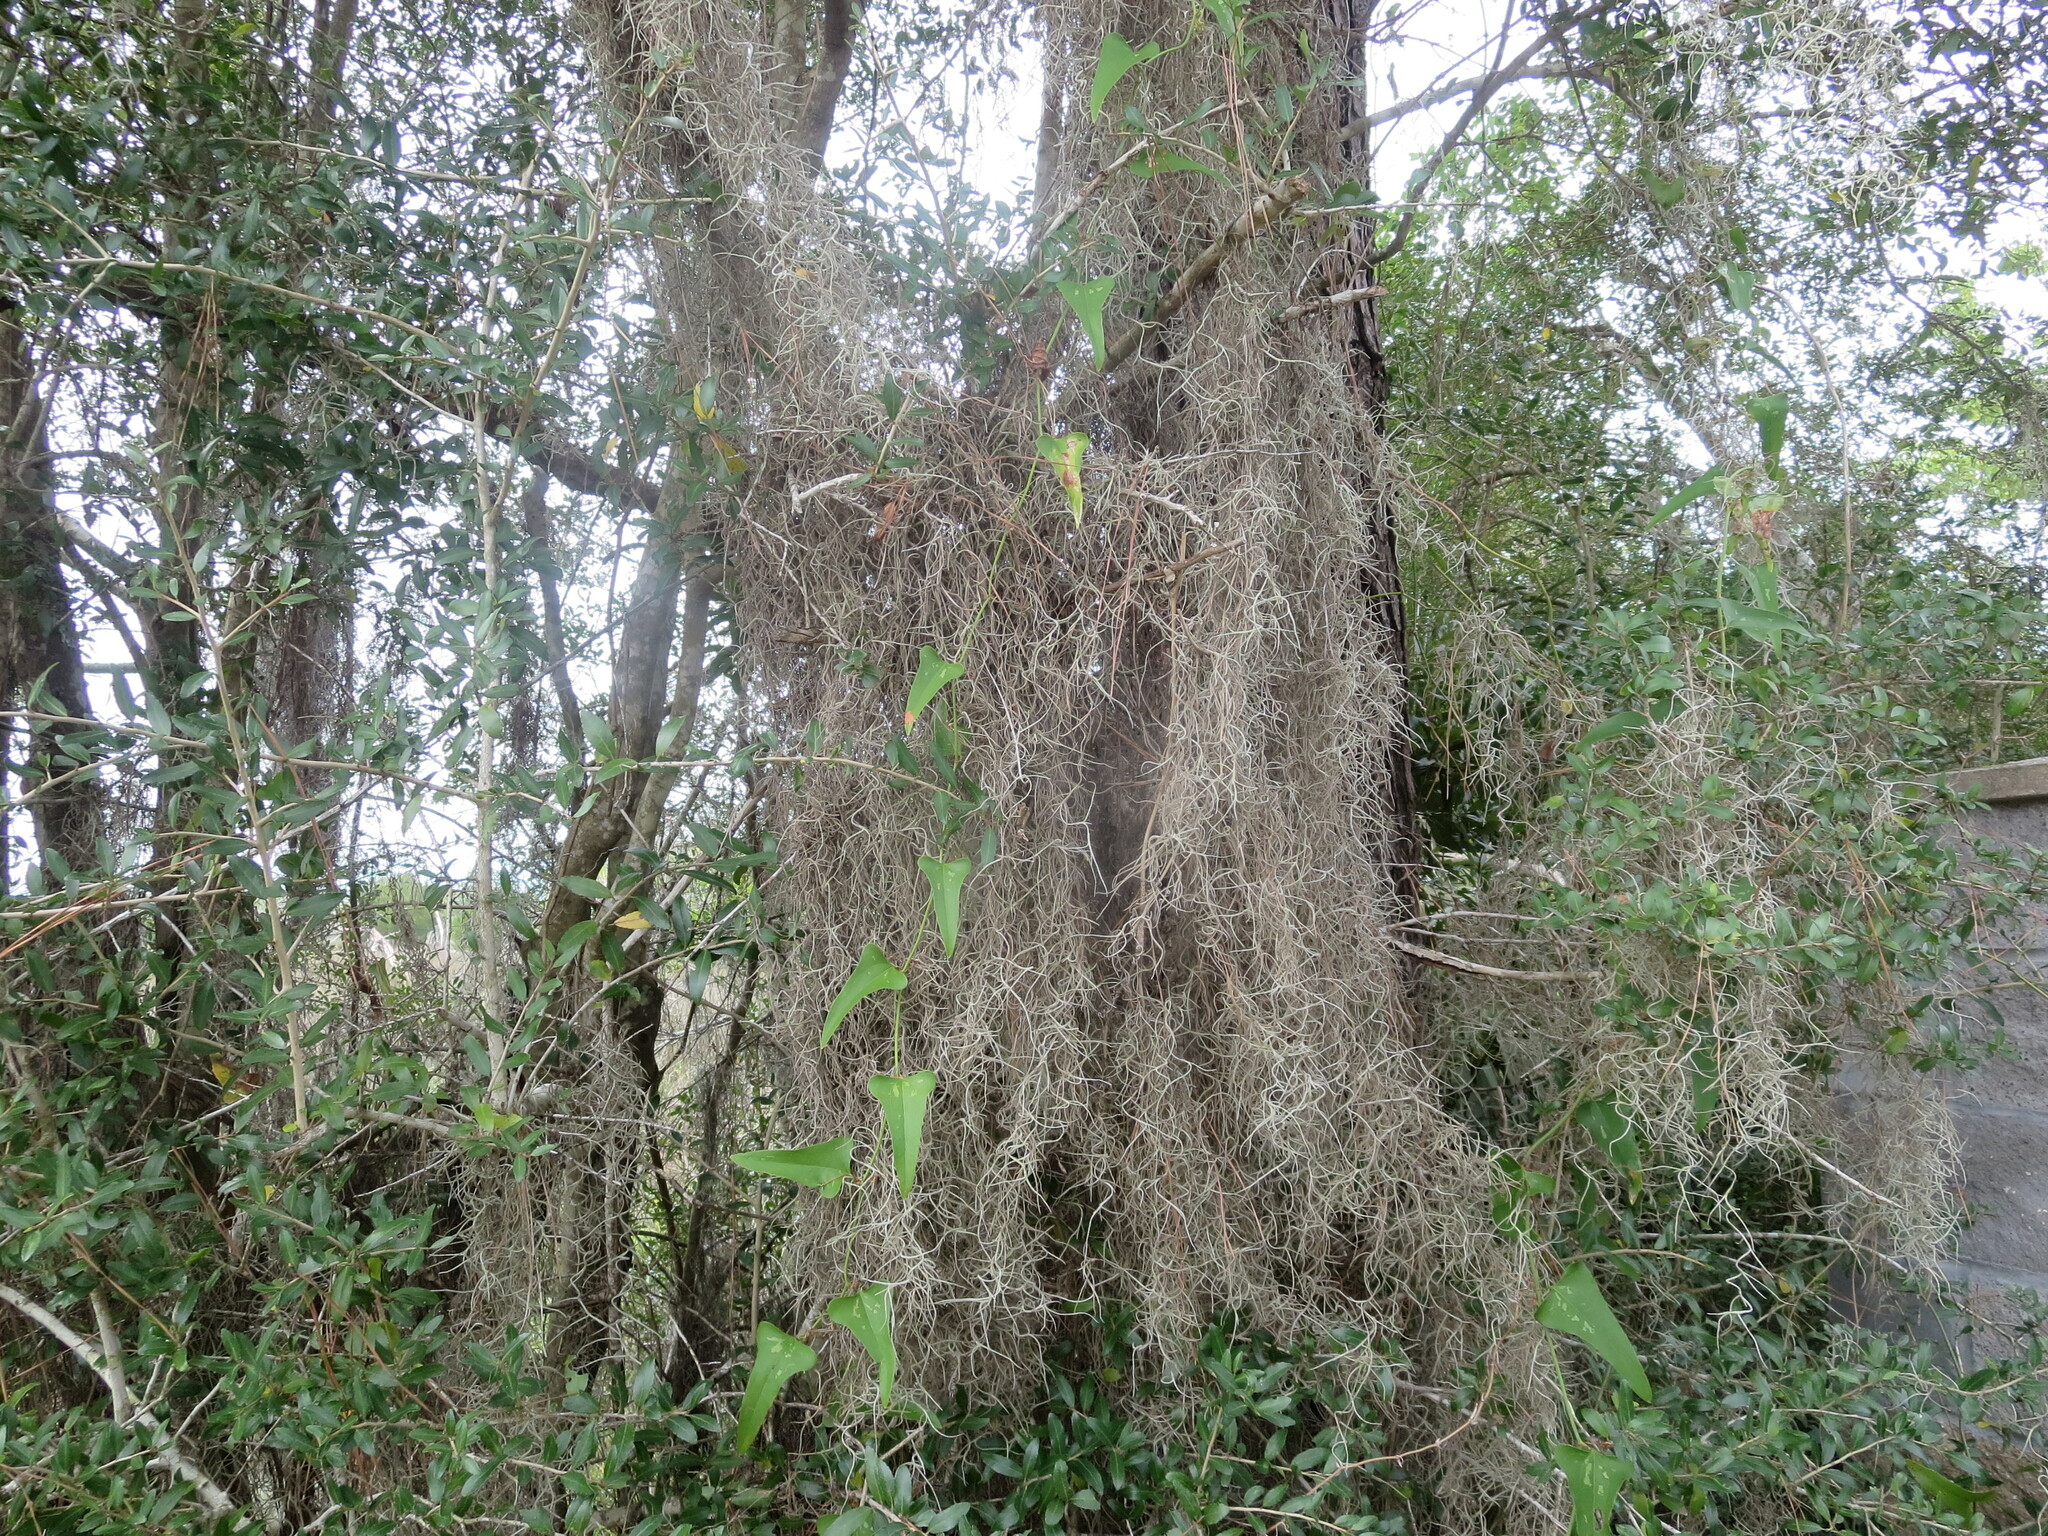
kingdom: Plantae
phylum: Tracheophyta
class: Liliopsida
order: Poales
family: Bromeliaceae
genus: Tillandsia
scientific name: Tillandsia usneoides
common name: Spanish moss
